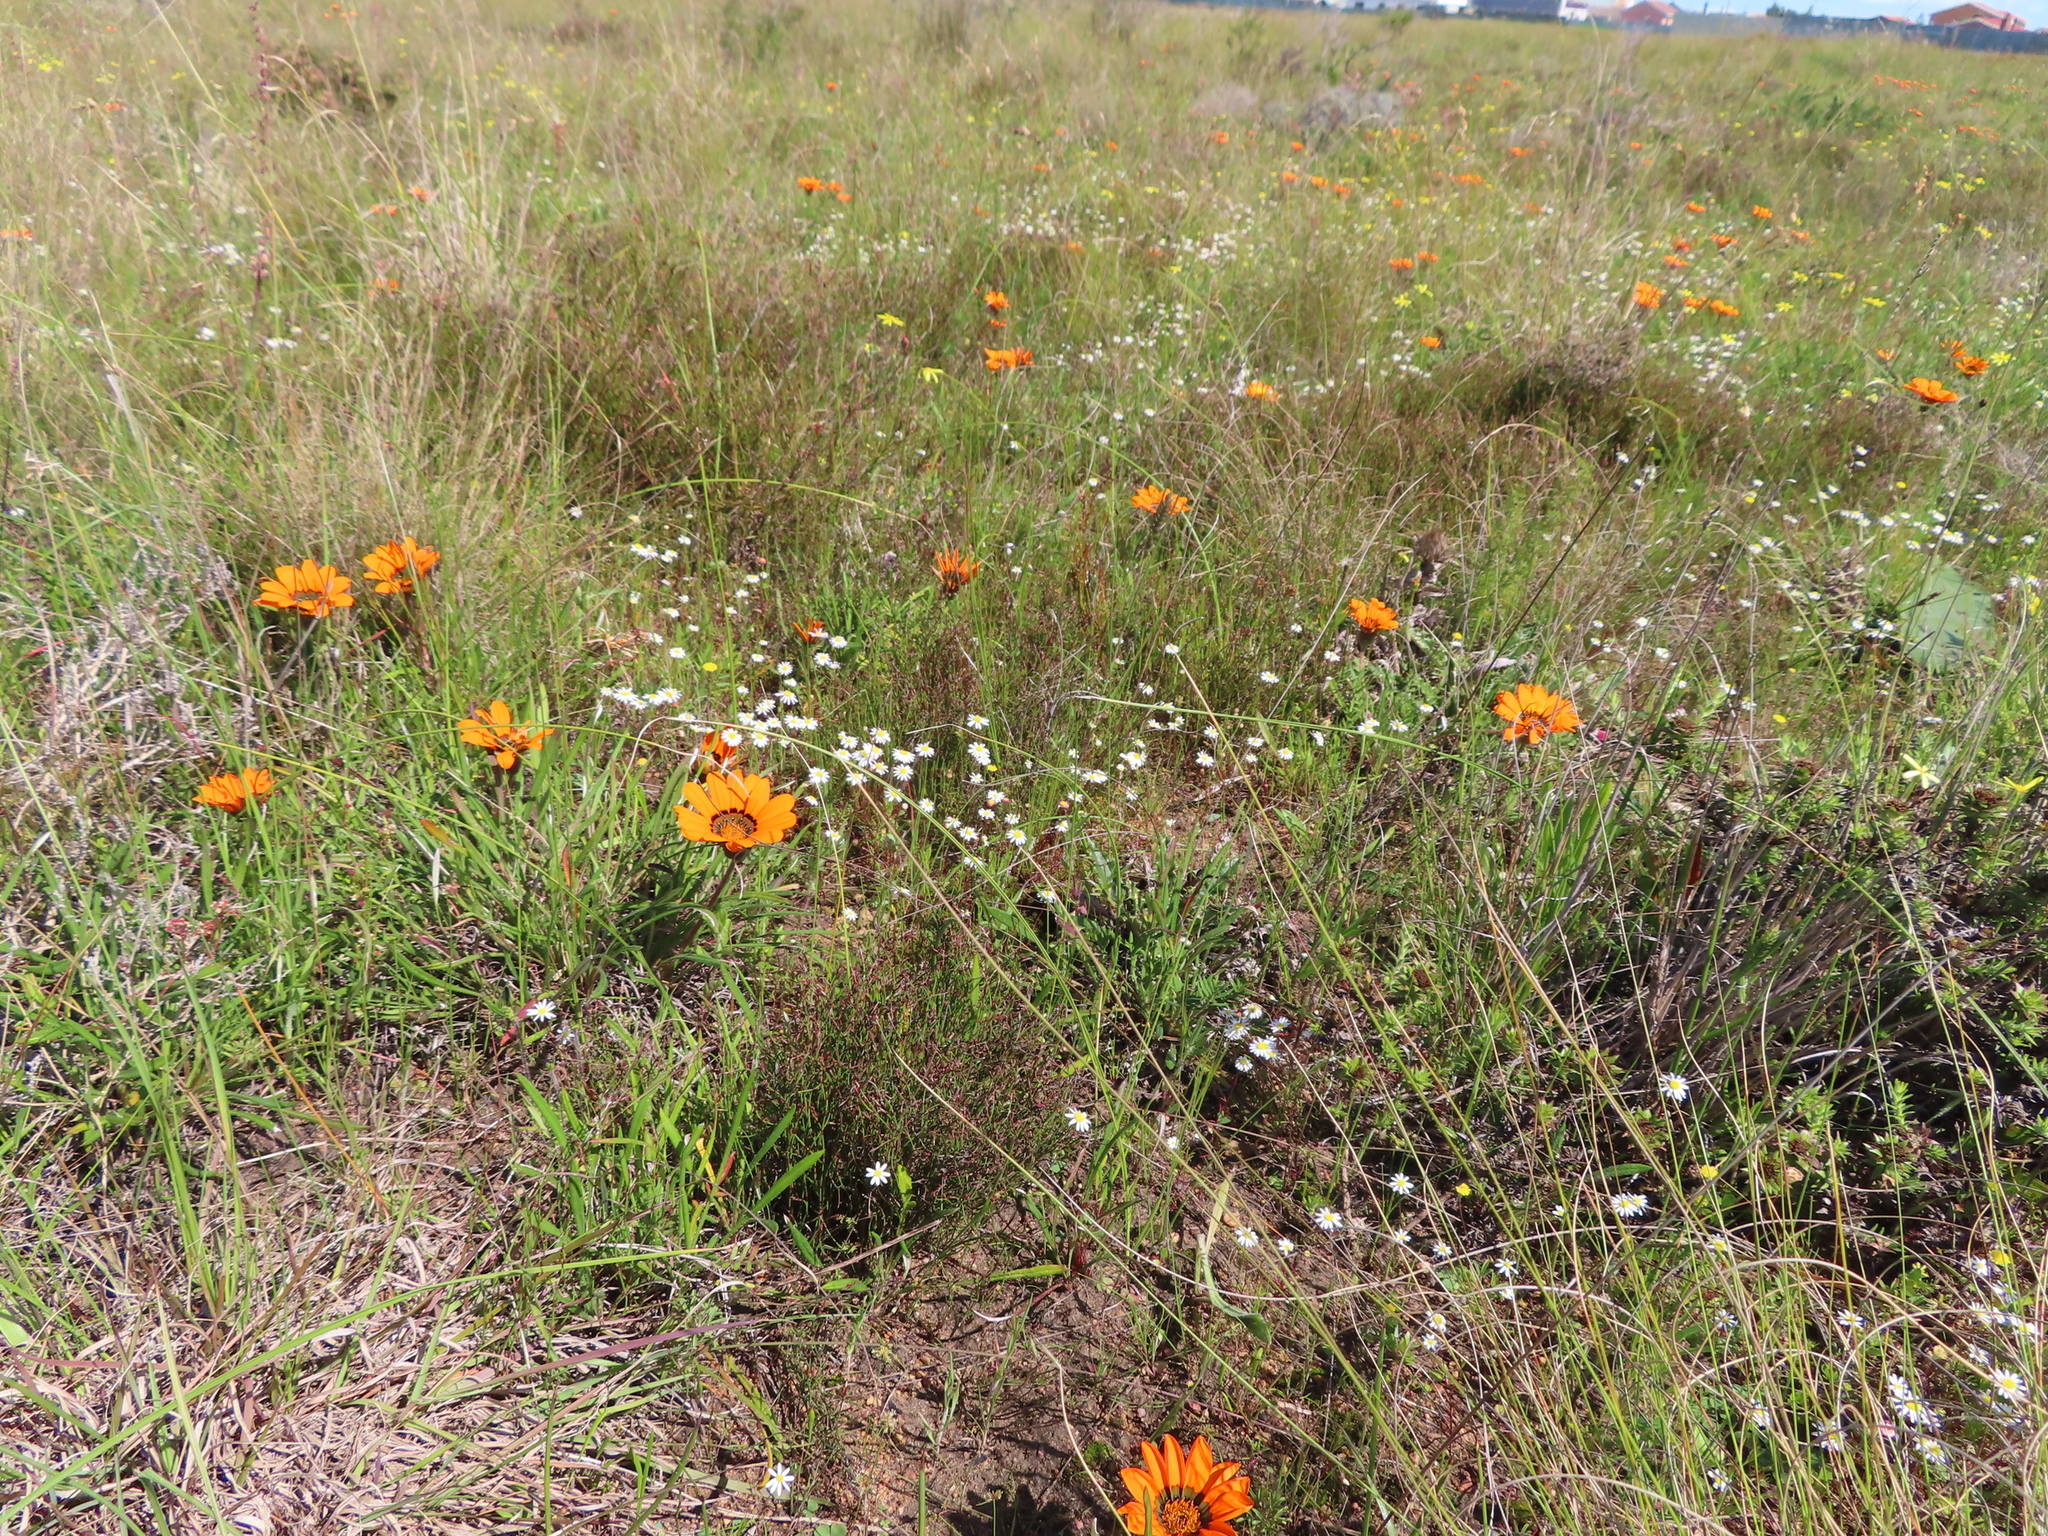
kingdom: Plantae
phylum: Tracheophyta
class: Magnoliopsida
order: Asterales
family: Asteraceae
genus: Gazania
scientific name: Gazania pectinata
